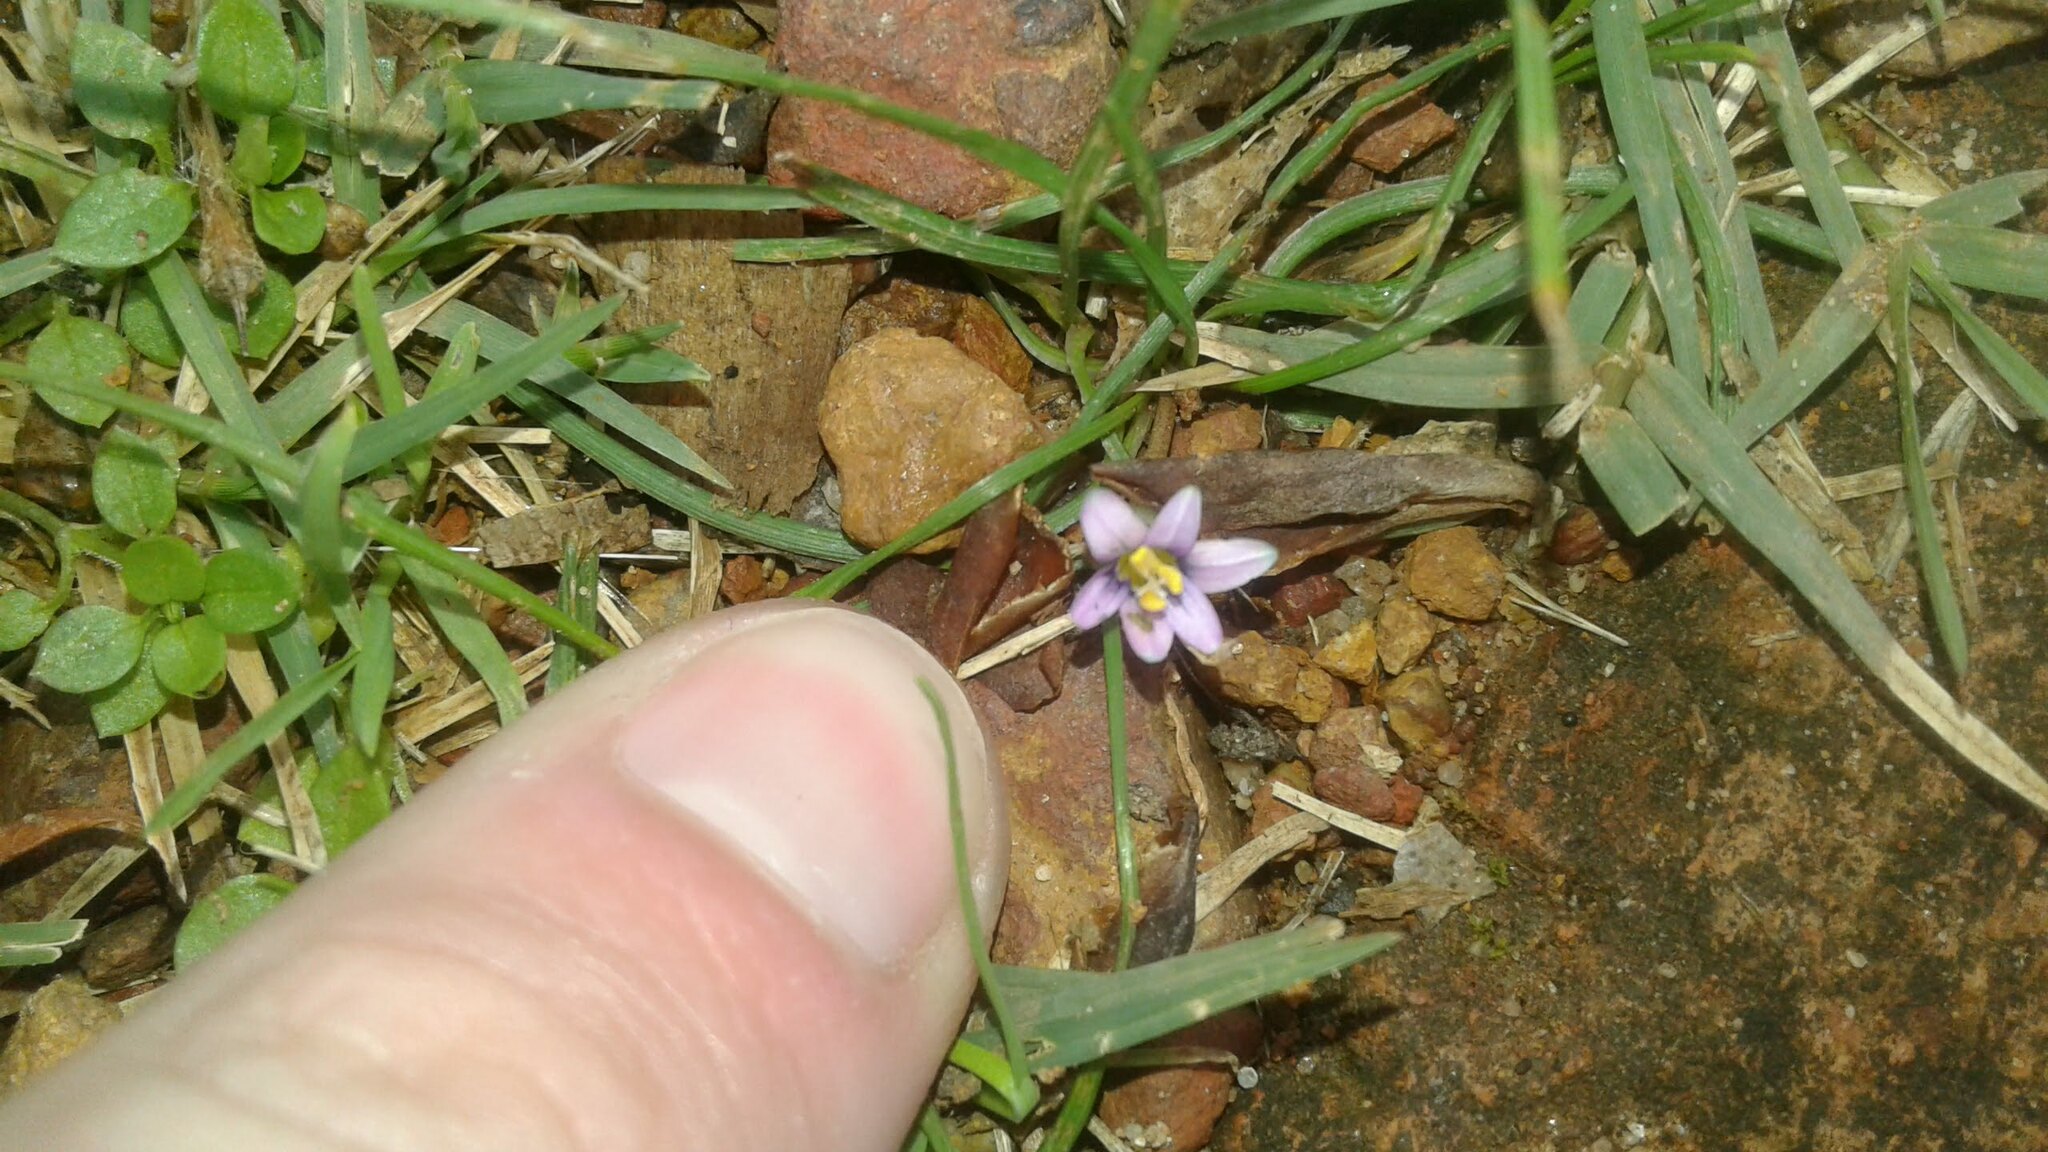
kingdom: Plantae
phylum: Tracheophyta
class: Liliopsida
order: Asparagales
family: Iridaceae
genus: Romulea
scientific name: Romulea minutiflora
